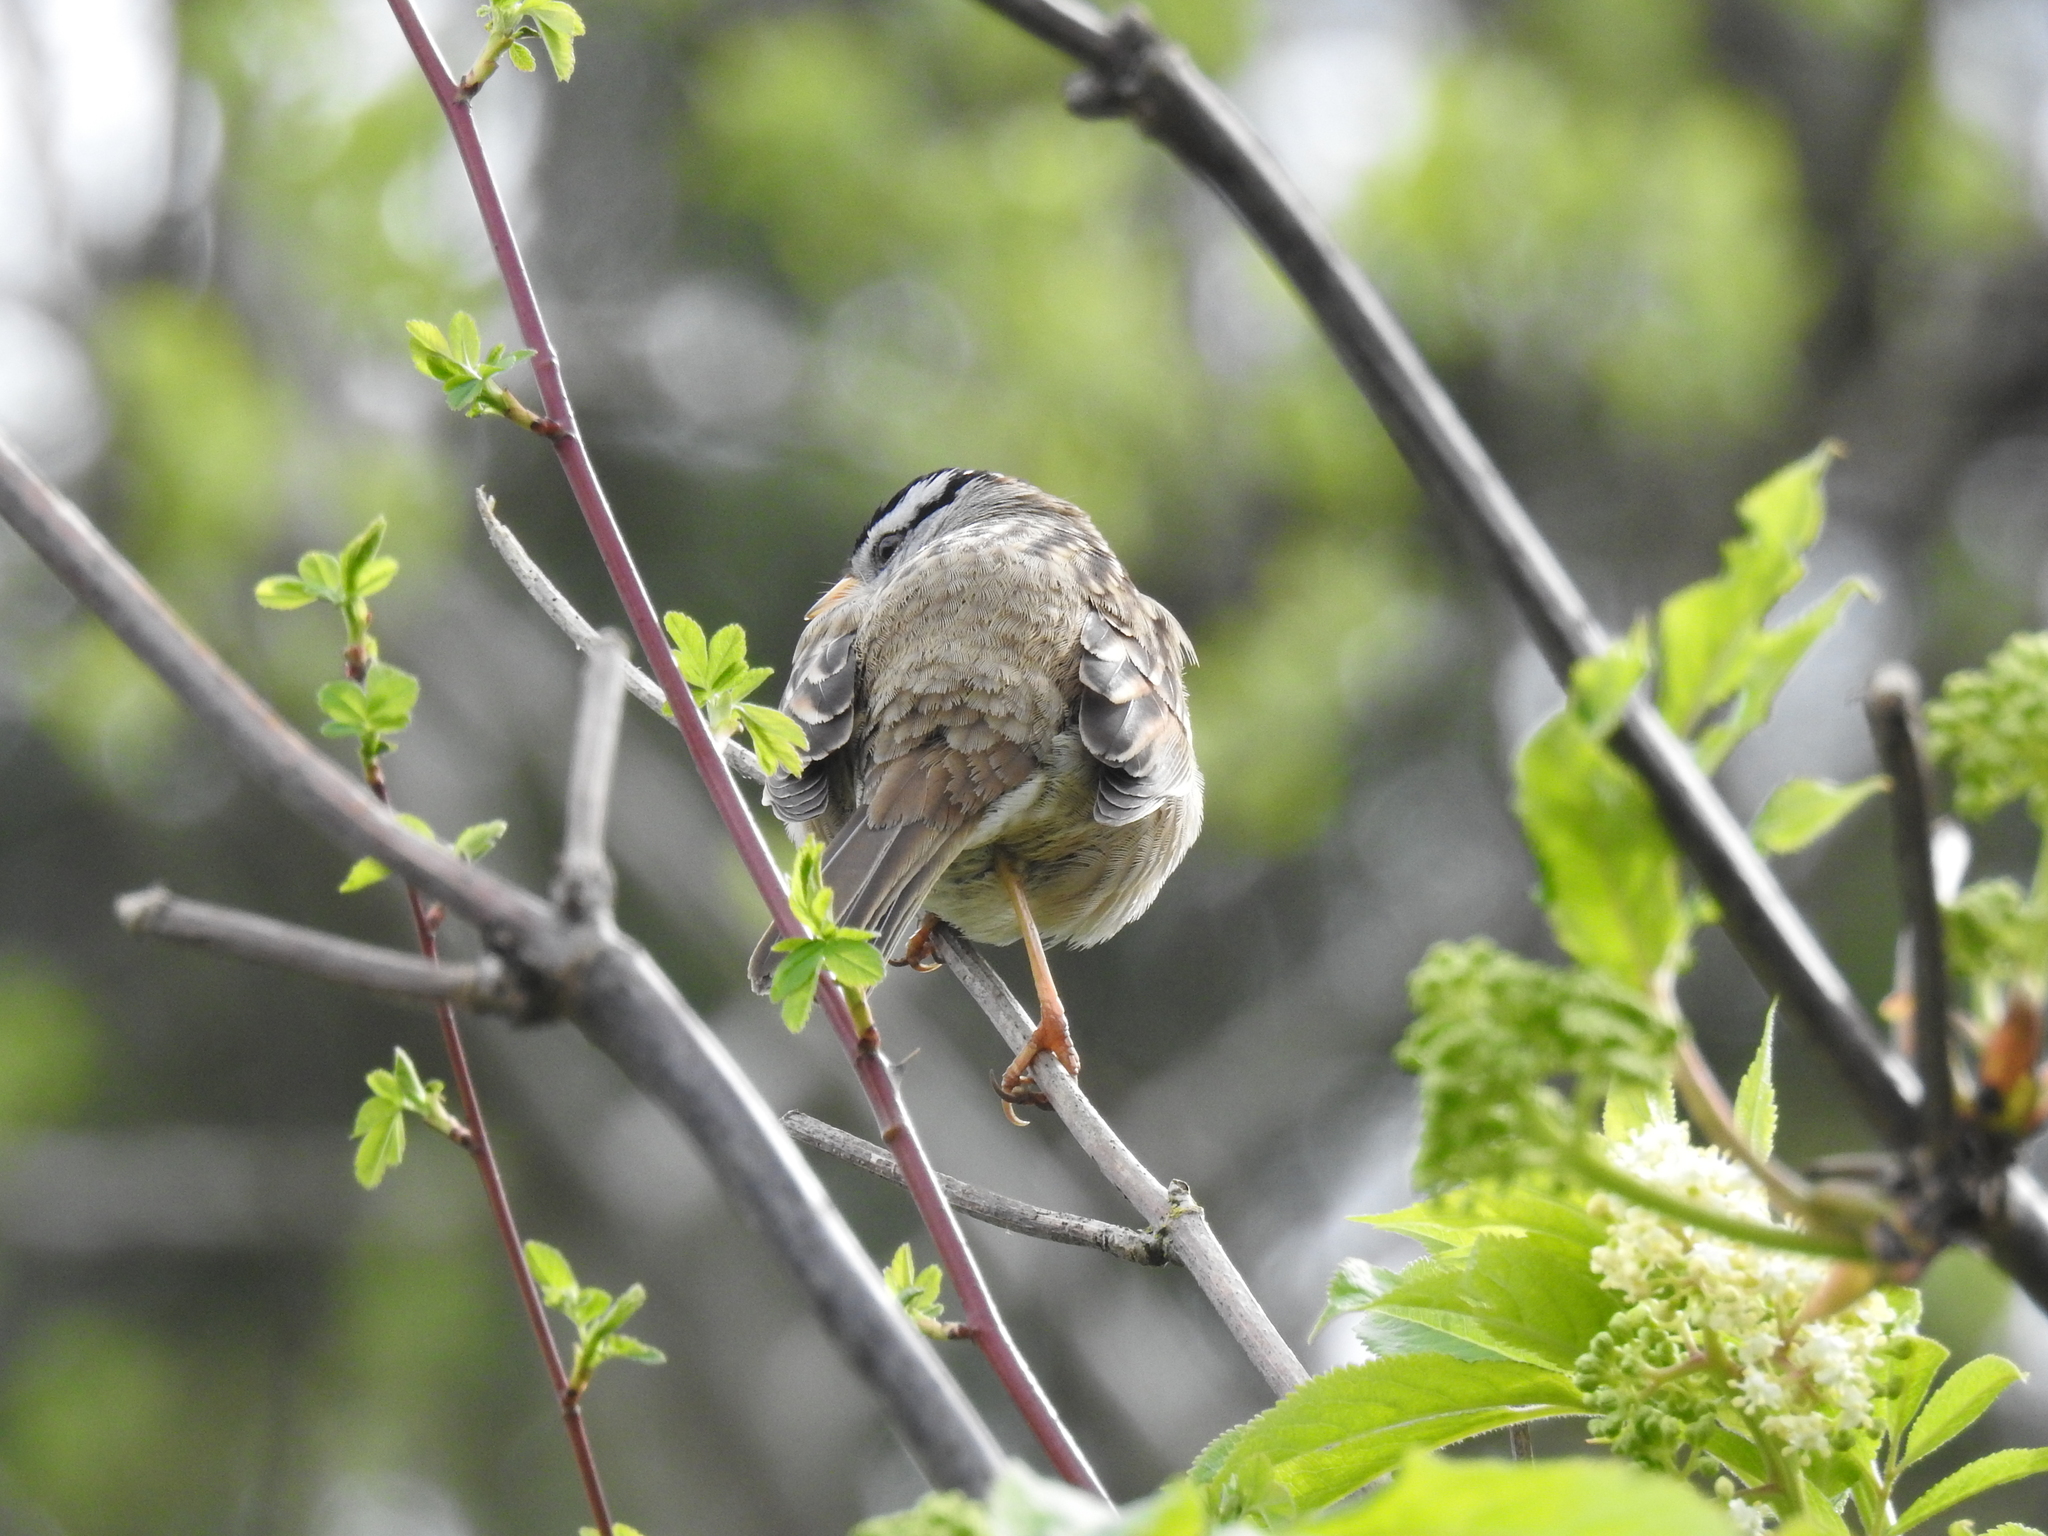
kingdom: Animalia
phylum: Chordata
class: Aves
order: Passeriformes
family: Passerellidae
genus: Zonotrichia
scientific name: Zonotrichia leucophrys
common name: White-crowned sparrow
